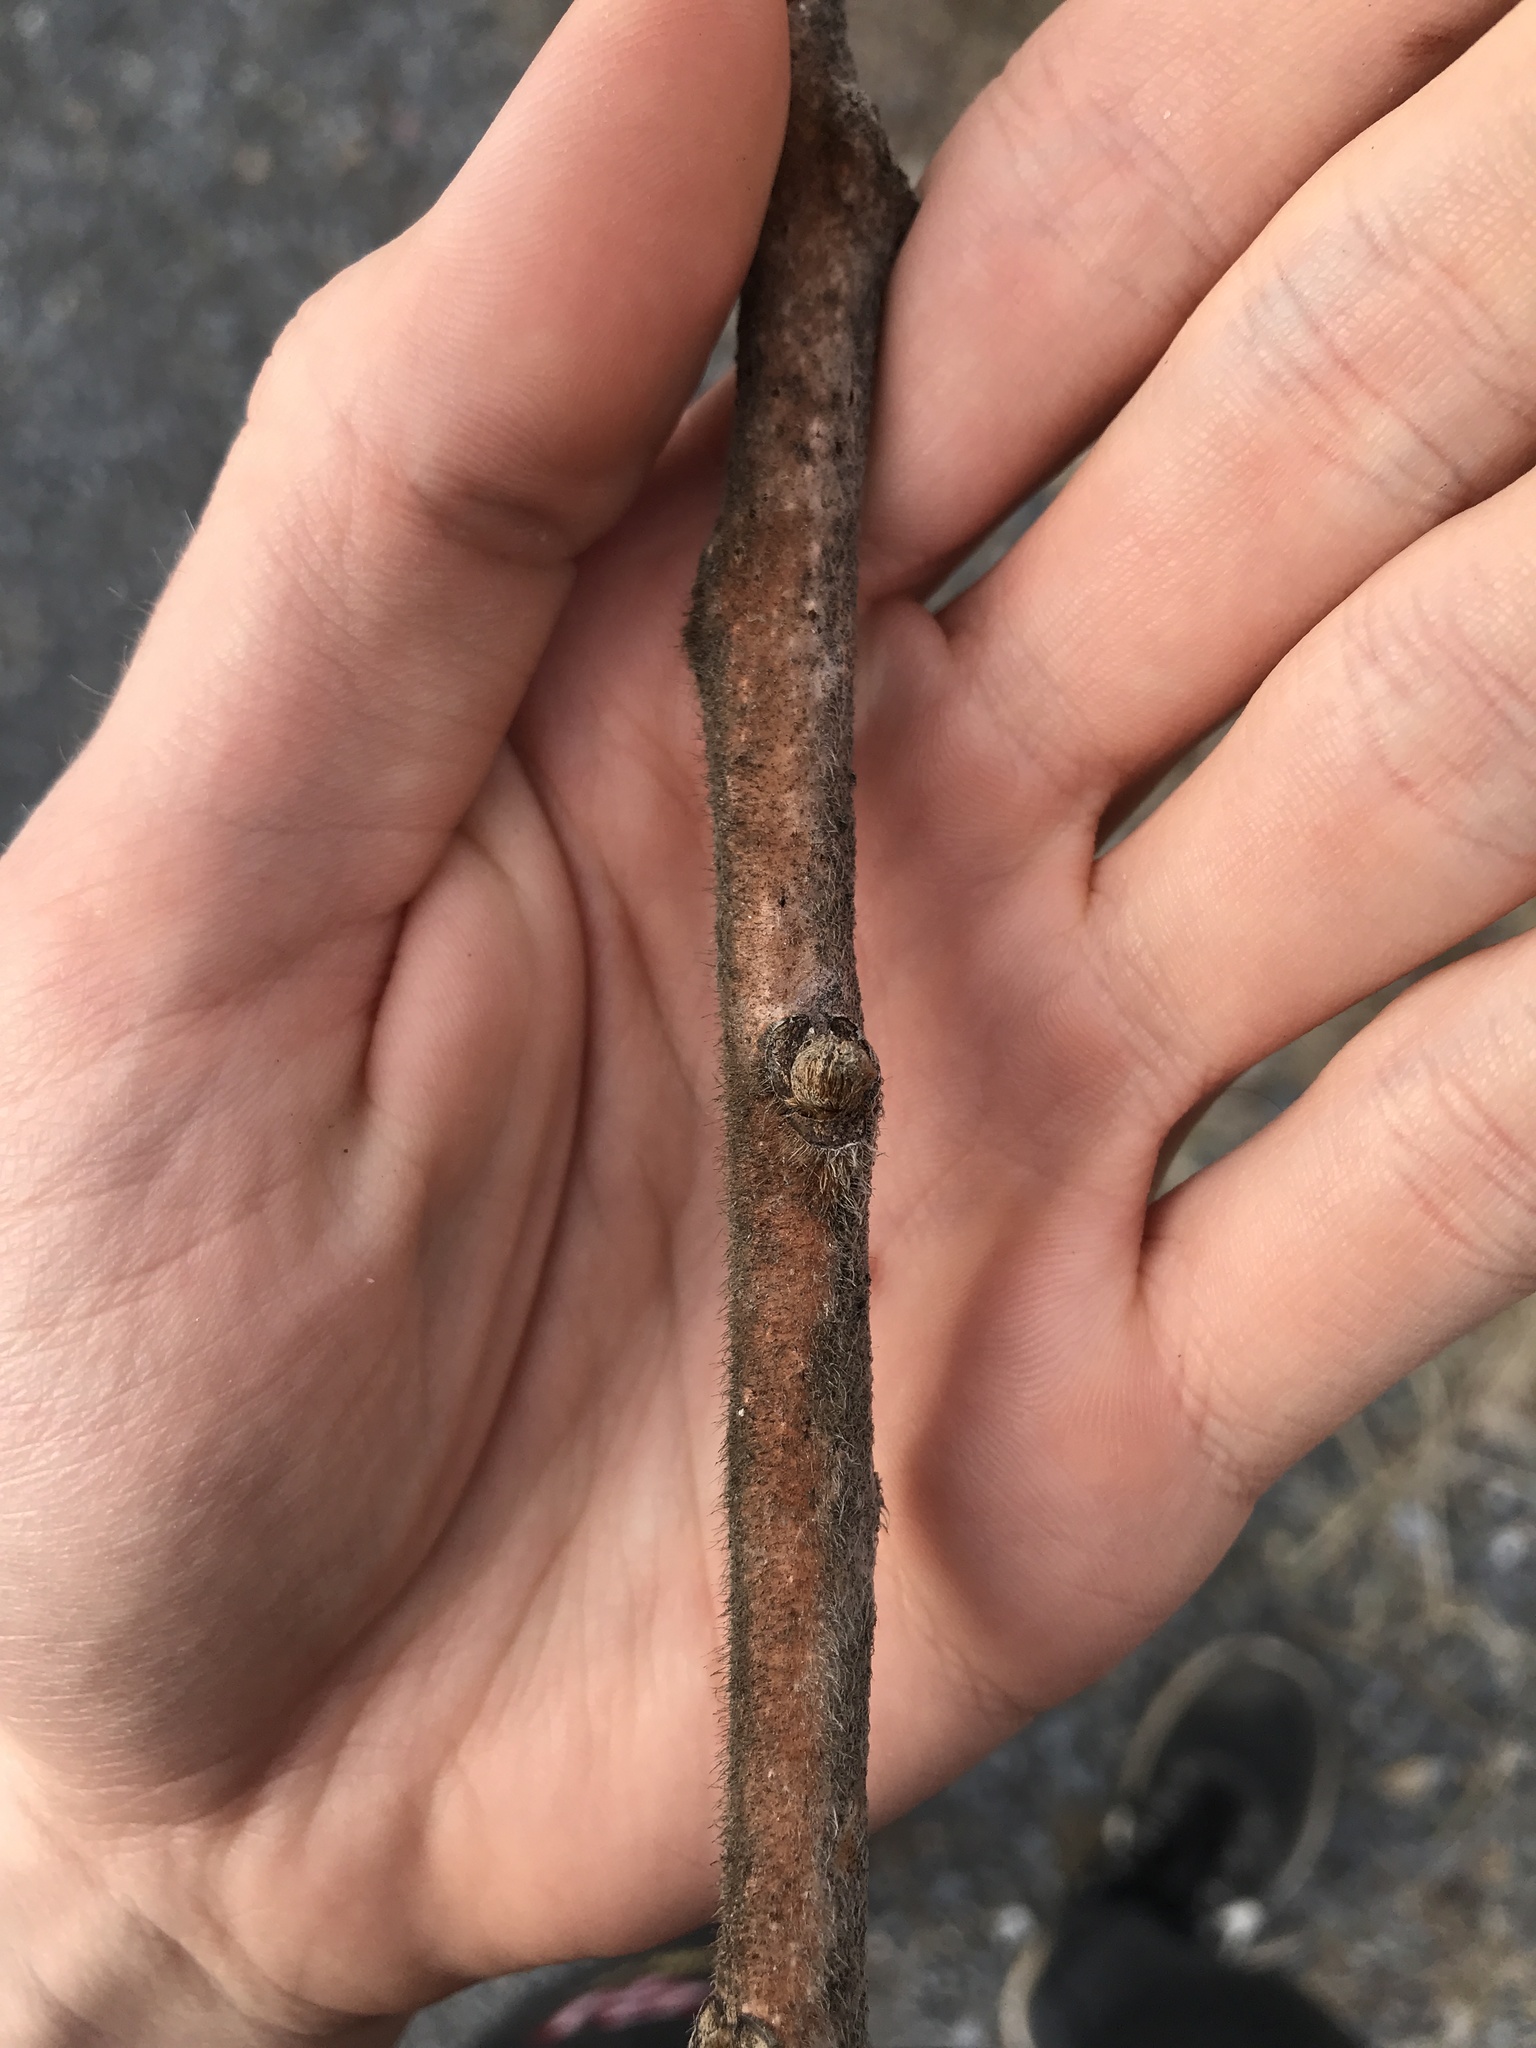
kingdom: Plantae
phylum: Tracheophyta
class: Magnoliopsida
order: Sapindales
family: Anacardiaceae
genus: Rhus
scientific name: Rhus typhina
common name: Staghorn sumac
